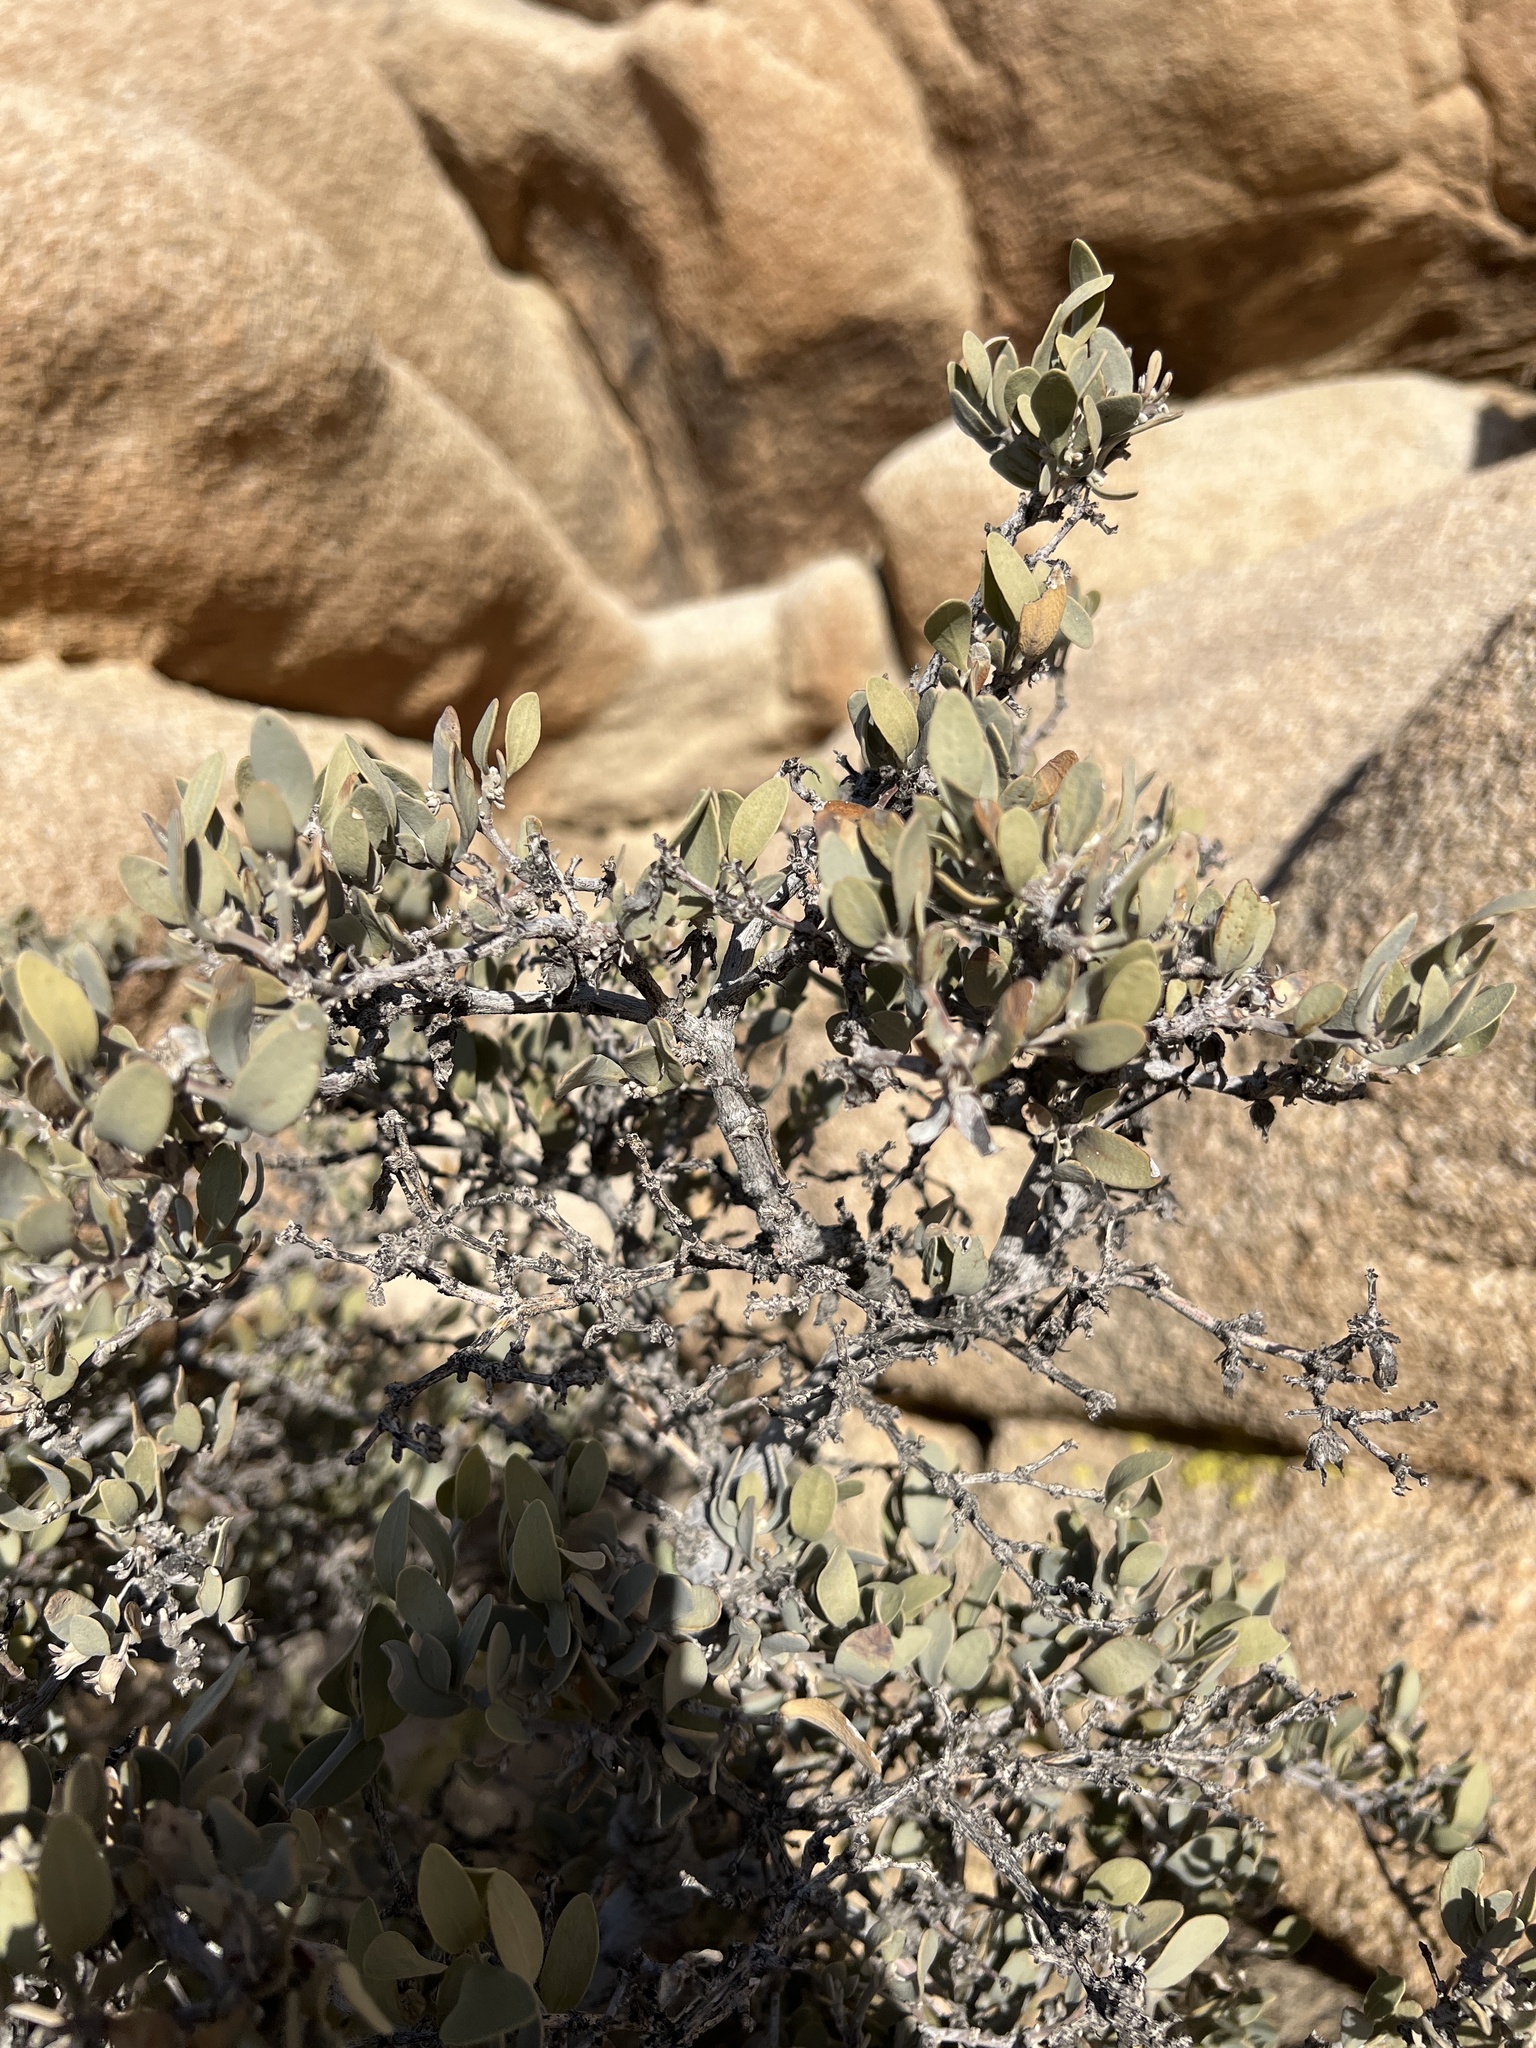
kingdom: Plantae
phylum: Tracheophyta
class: Magnoliopsida
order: Caryophyllales
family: Simmondsiaceae
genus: Simmondsia
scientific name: Simmondsia chinensis
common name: Jojoba
